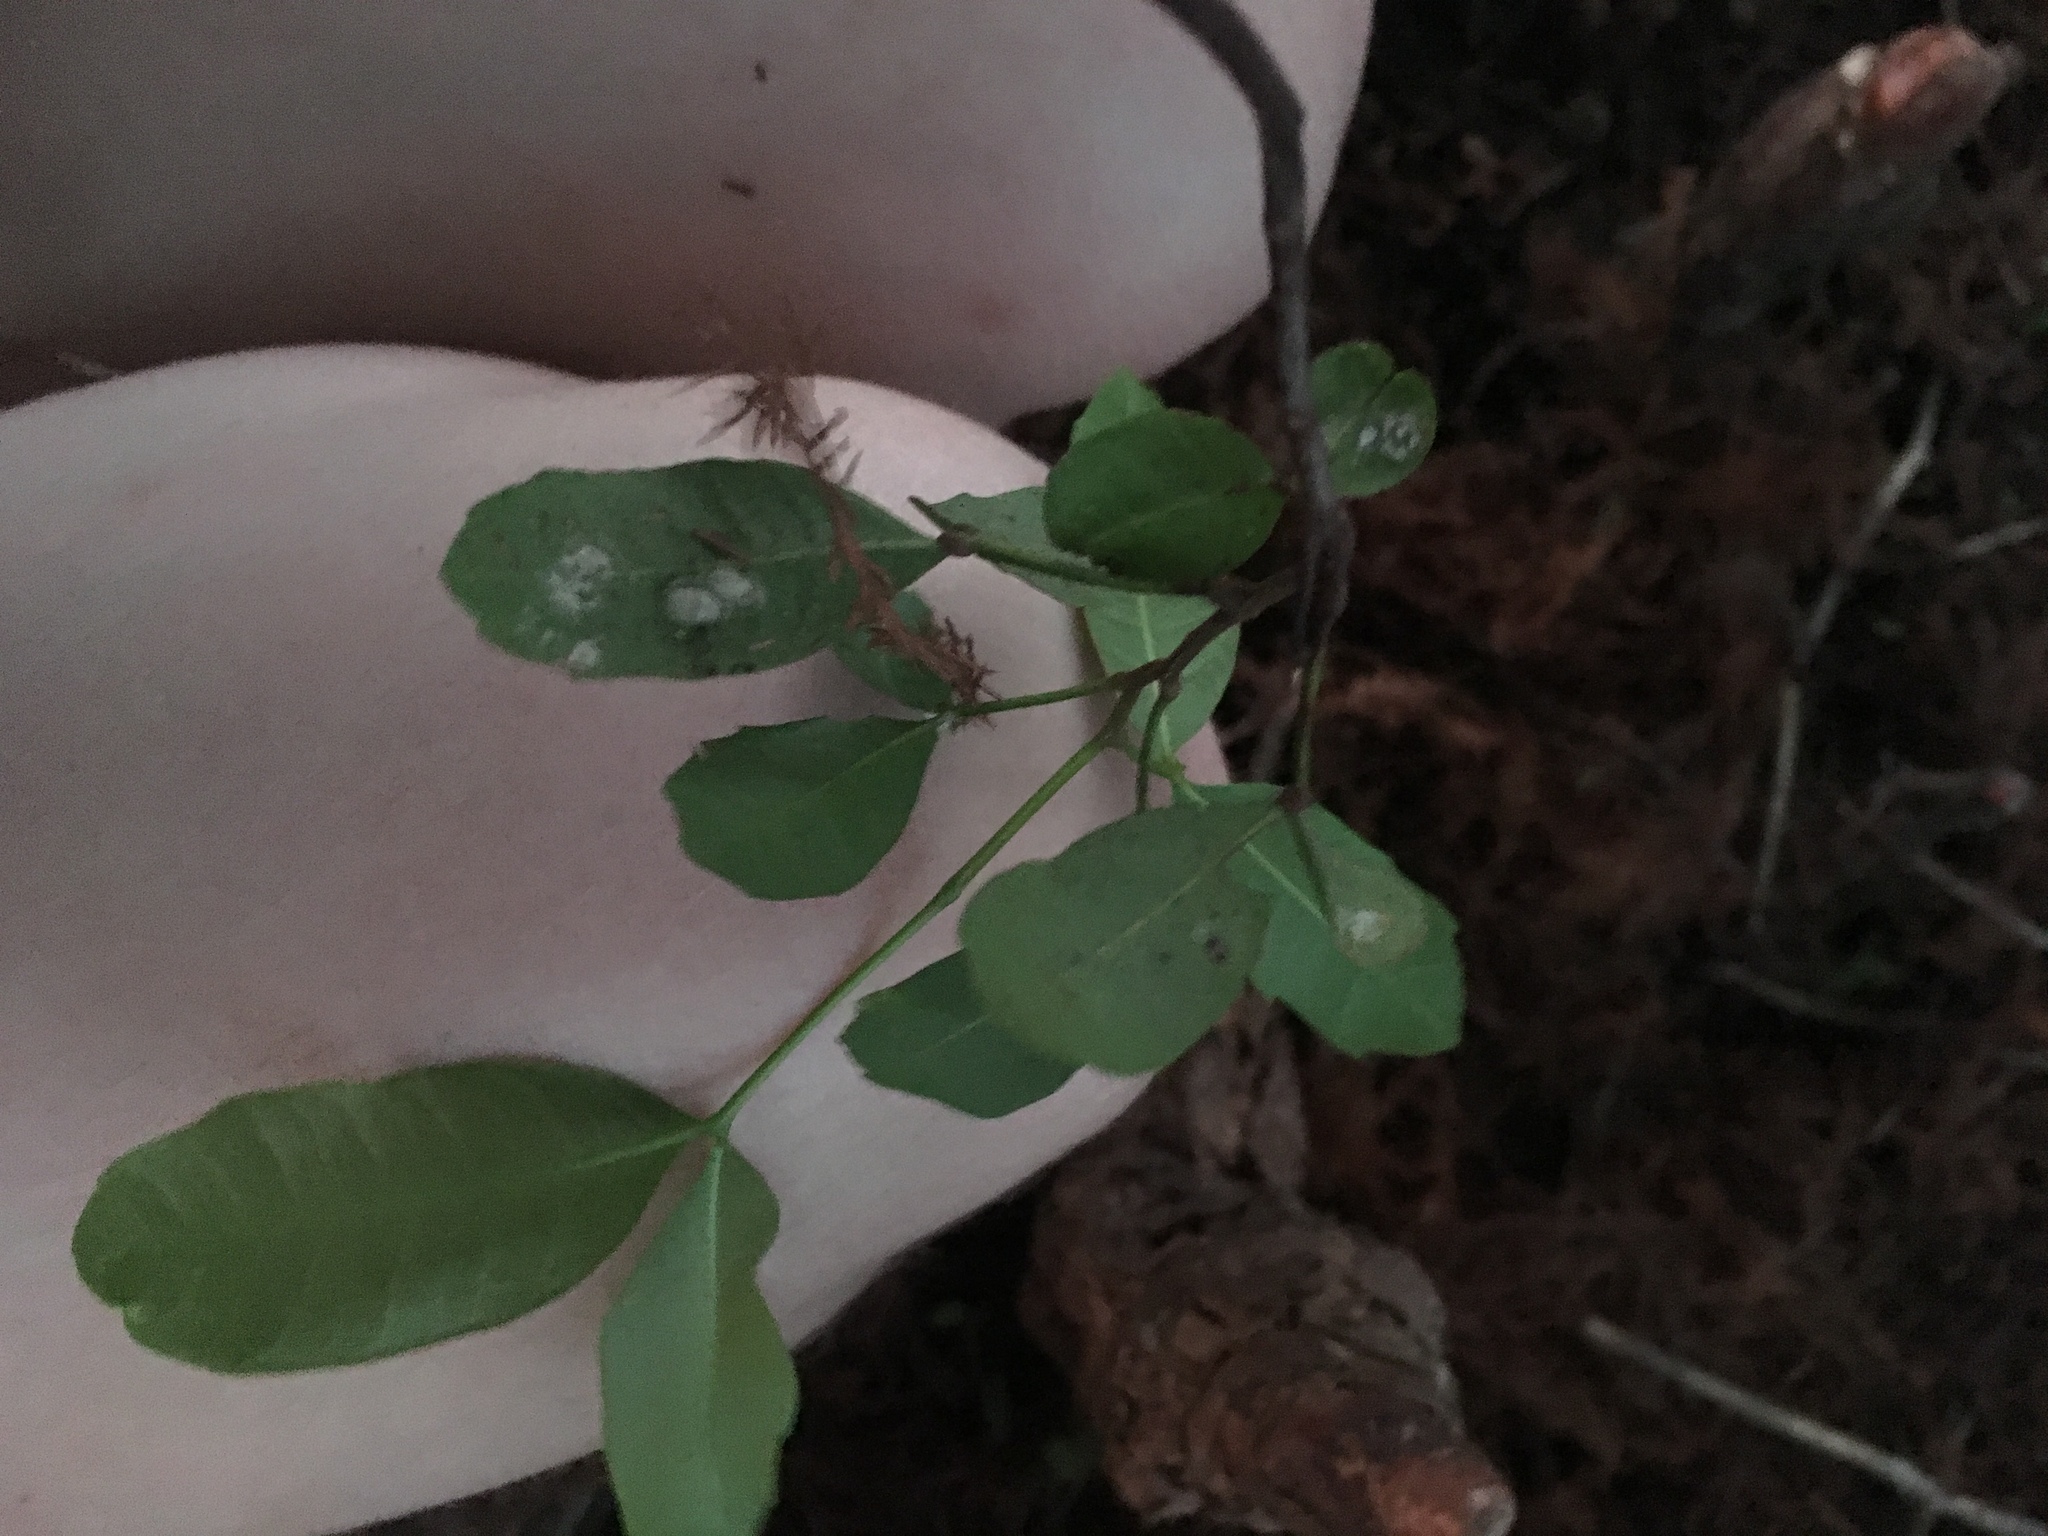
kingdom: Plantae
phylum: Tracheophyta
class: Magnoliopsida
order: Sapindales
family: Sapindaceae
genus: Cupaniopsis
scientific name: Cupaniopsis anacardioides
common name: Carrotwood
